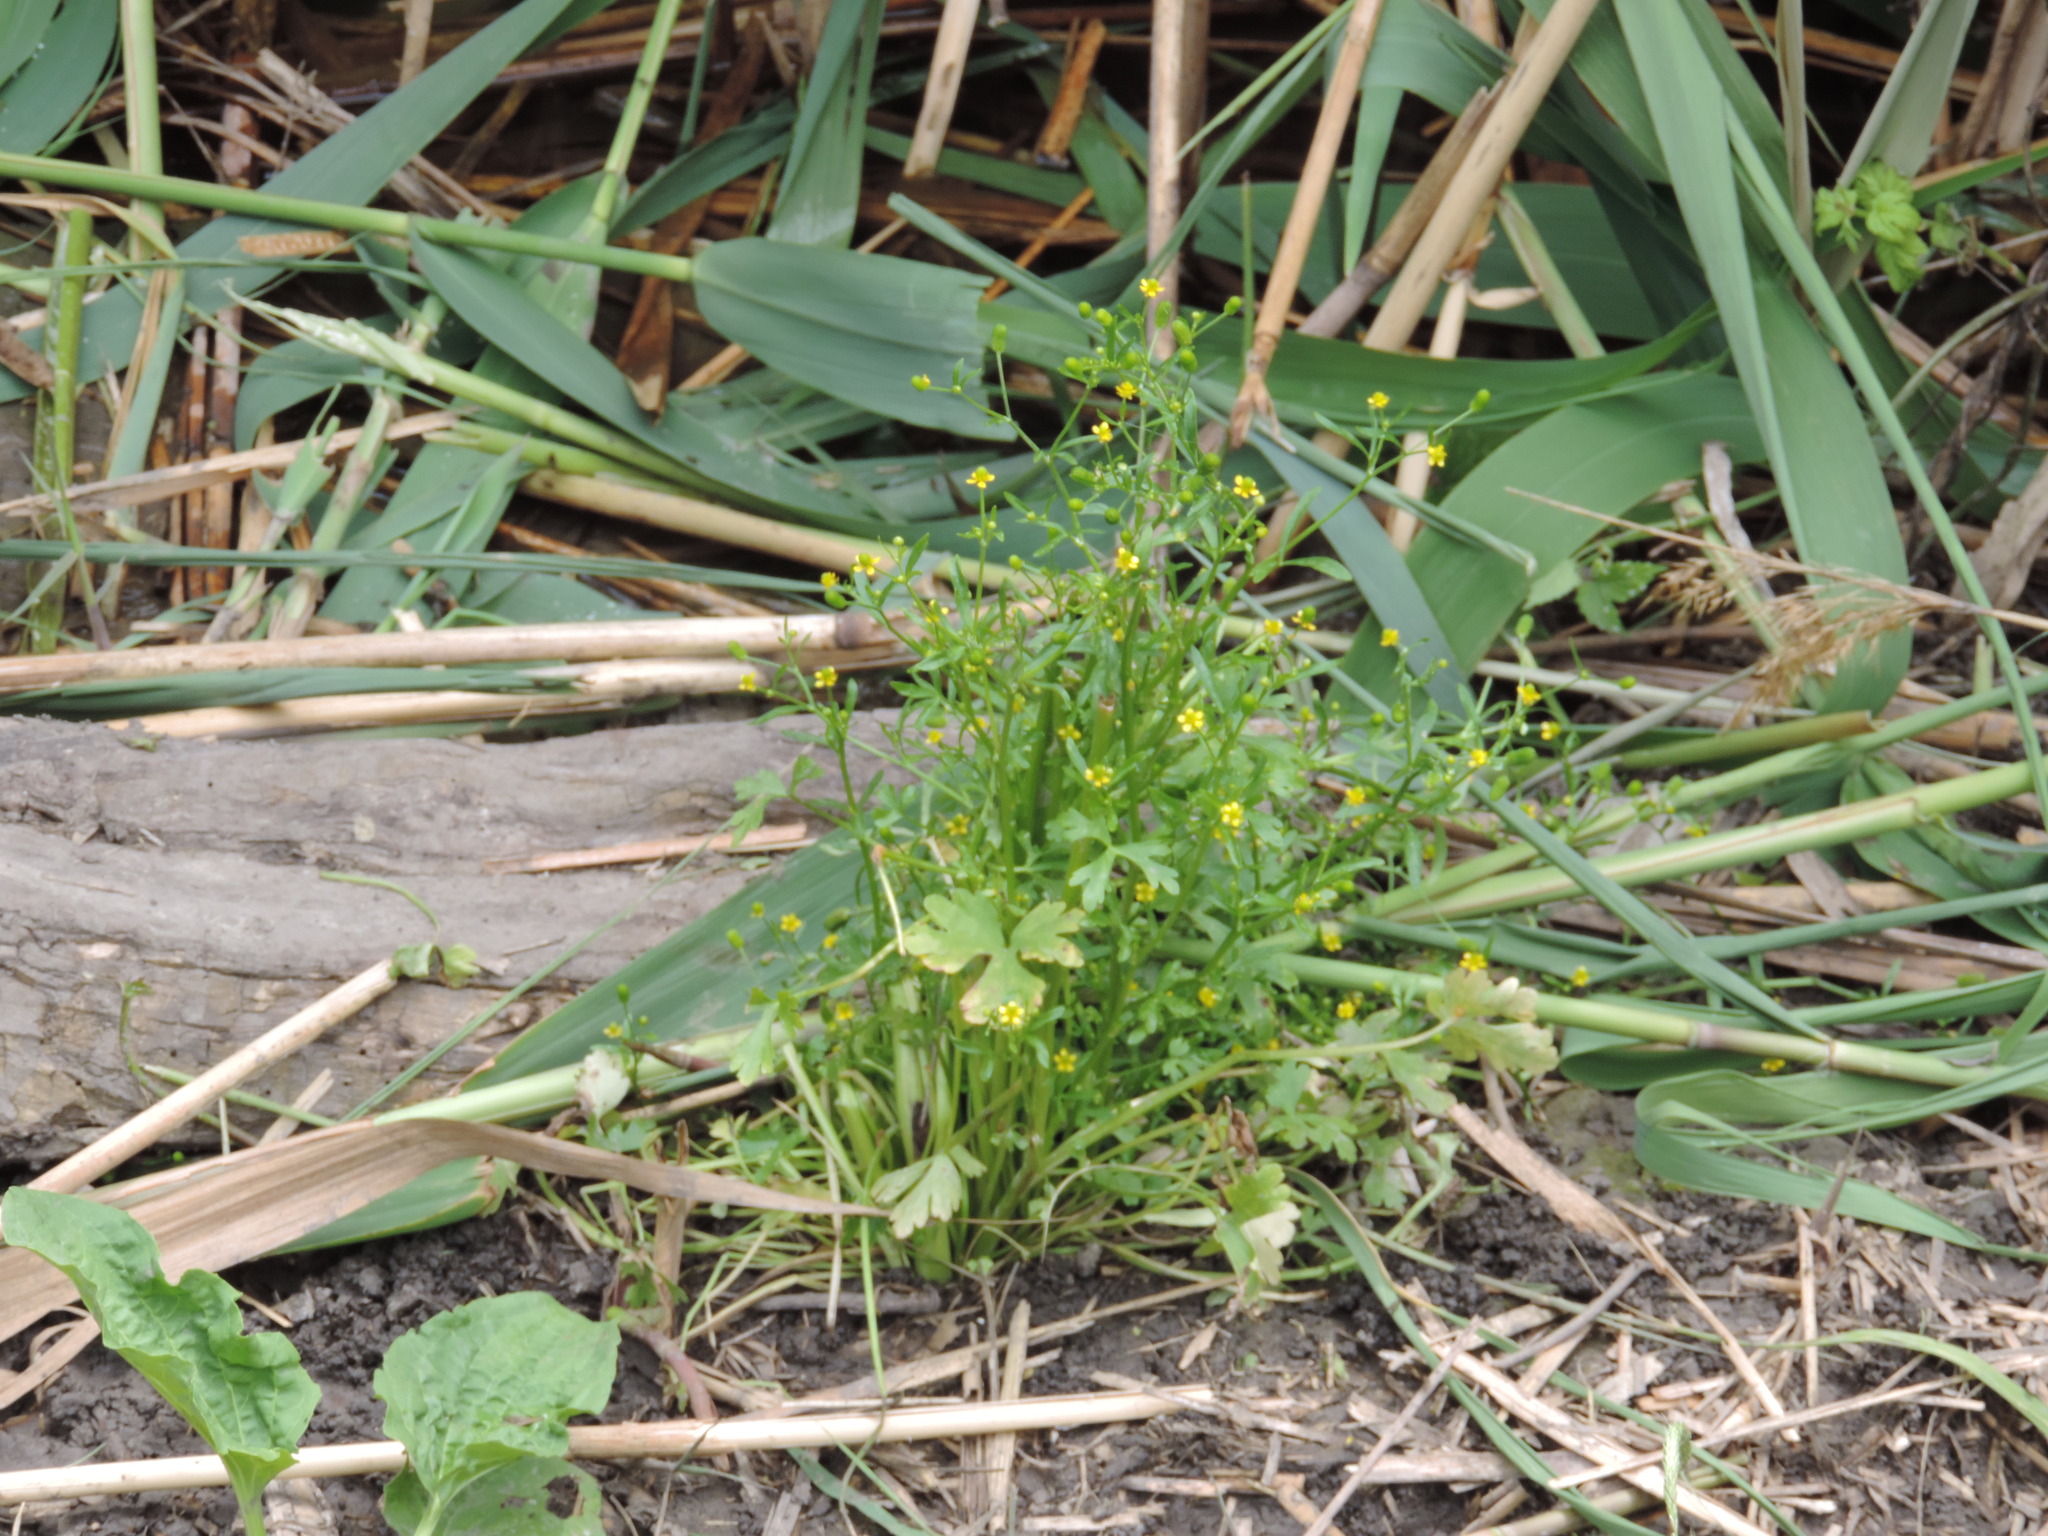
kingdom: Plantae
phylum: Tracheophyta
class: Magnoliopsida
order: Ranunculales
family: Ranunculaceae
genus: Ranunculus
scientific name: Ranunculus sceleratus
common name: Celery-leaved buttercup
